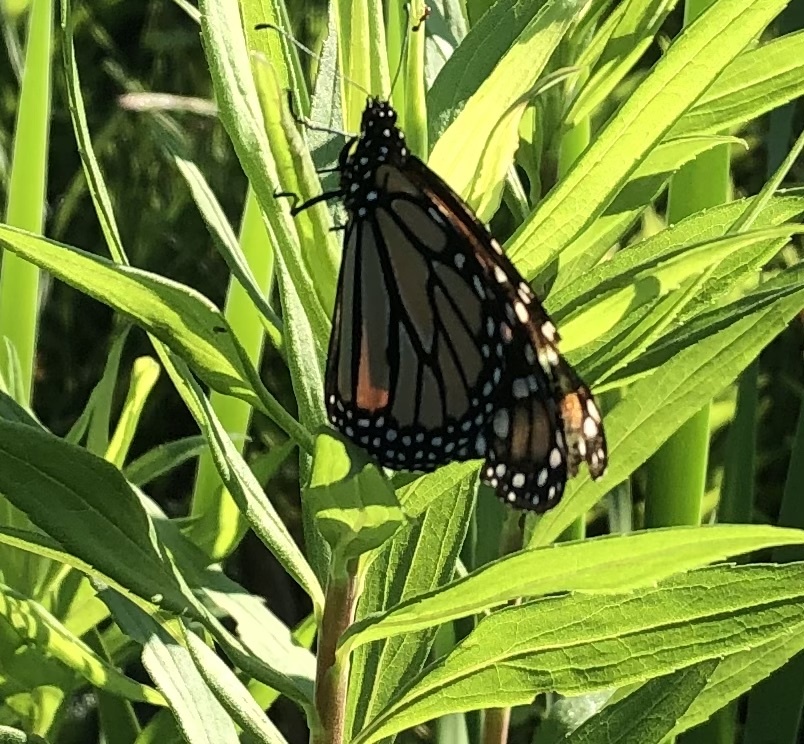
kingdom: Animalia
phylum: Arthropoda
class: Insecta
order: Lepidoptera
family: Nymphalidae
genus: Danaus
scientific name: Danaus plexippus
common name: Monarch
